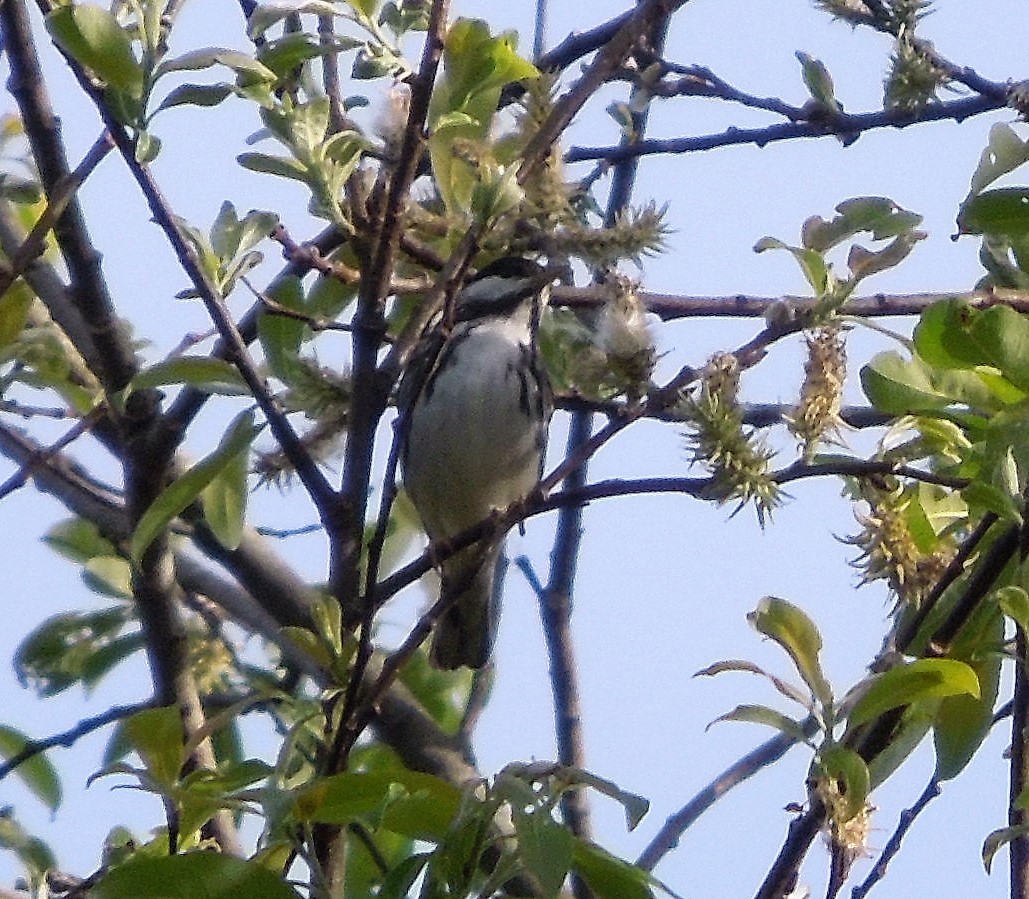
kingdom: Animalia
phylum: Chordata
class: Aves
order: Passeriformes
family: Parulidae
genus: Setophaga
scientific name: Setophaga striata
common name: Blackpoll warbler
